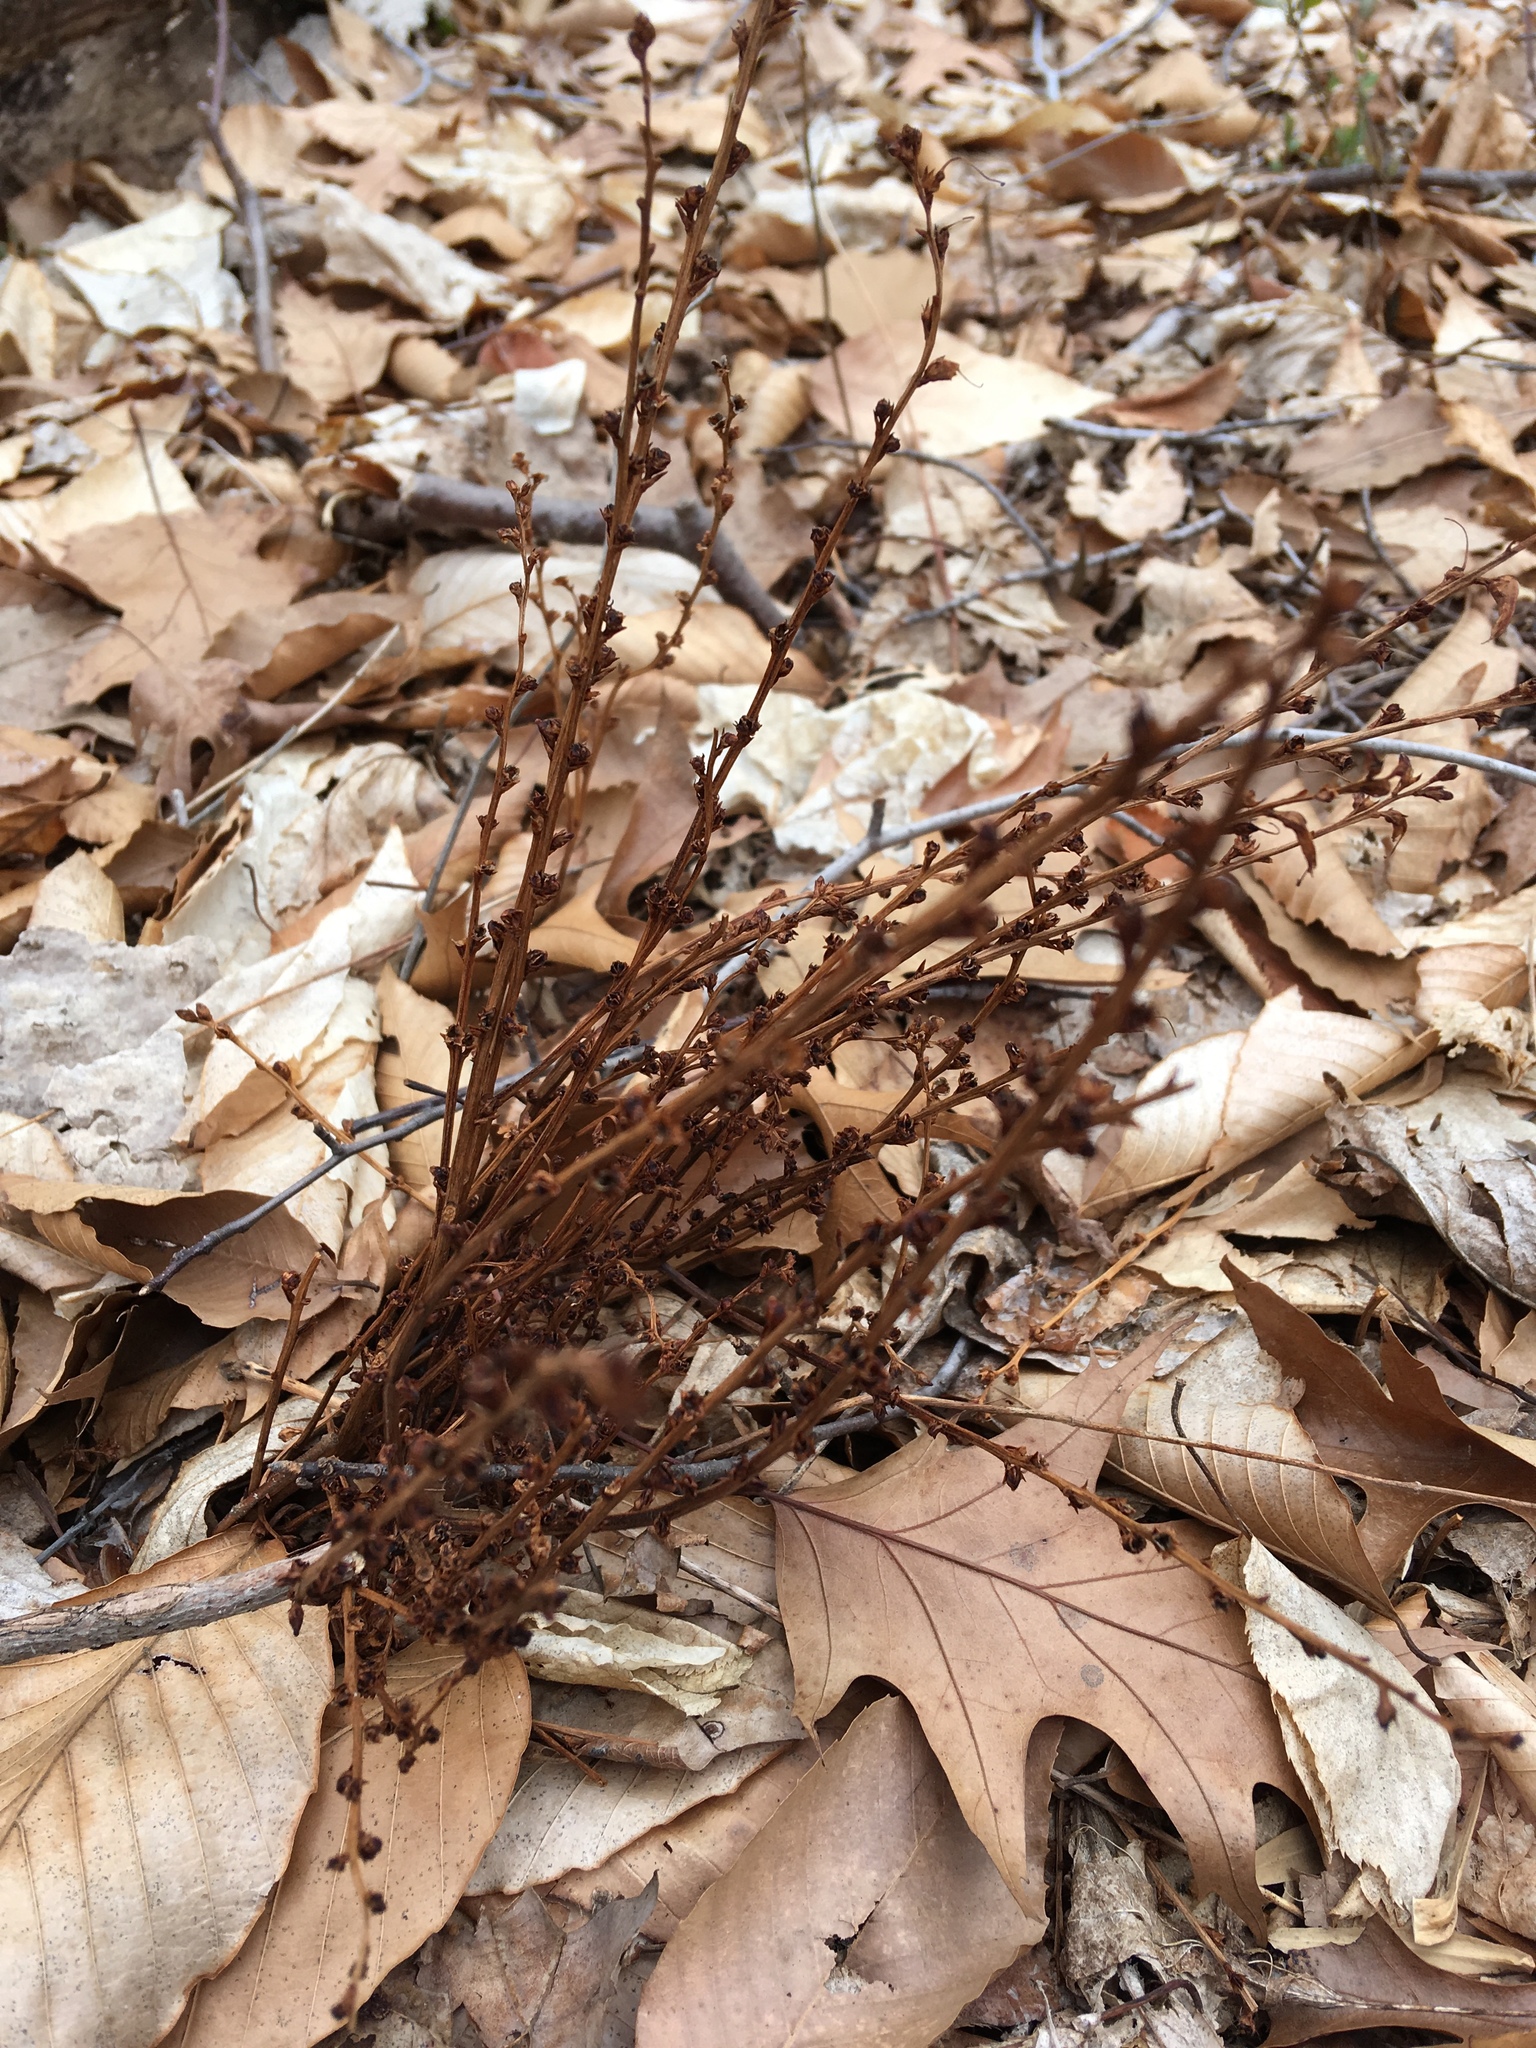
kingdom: Plantae
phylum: Tracheophyta
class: Magnoliopsida
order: Lamiales
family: Orobanchaceae
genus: Epifagus
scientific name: Epifagus virginiana
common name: Beechdrops
